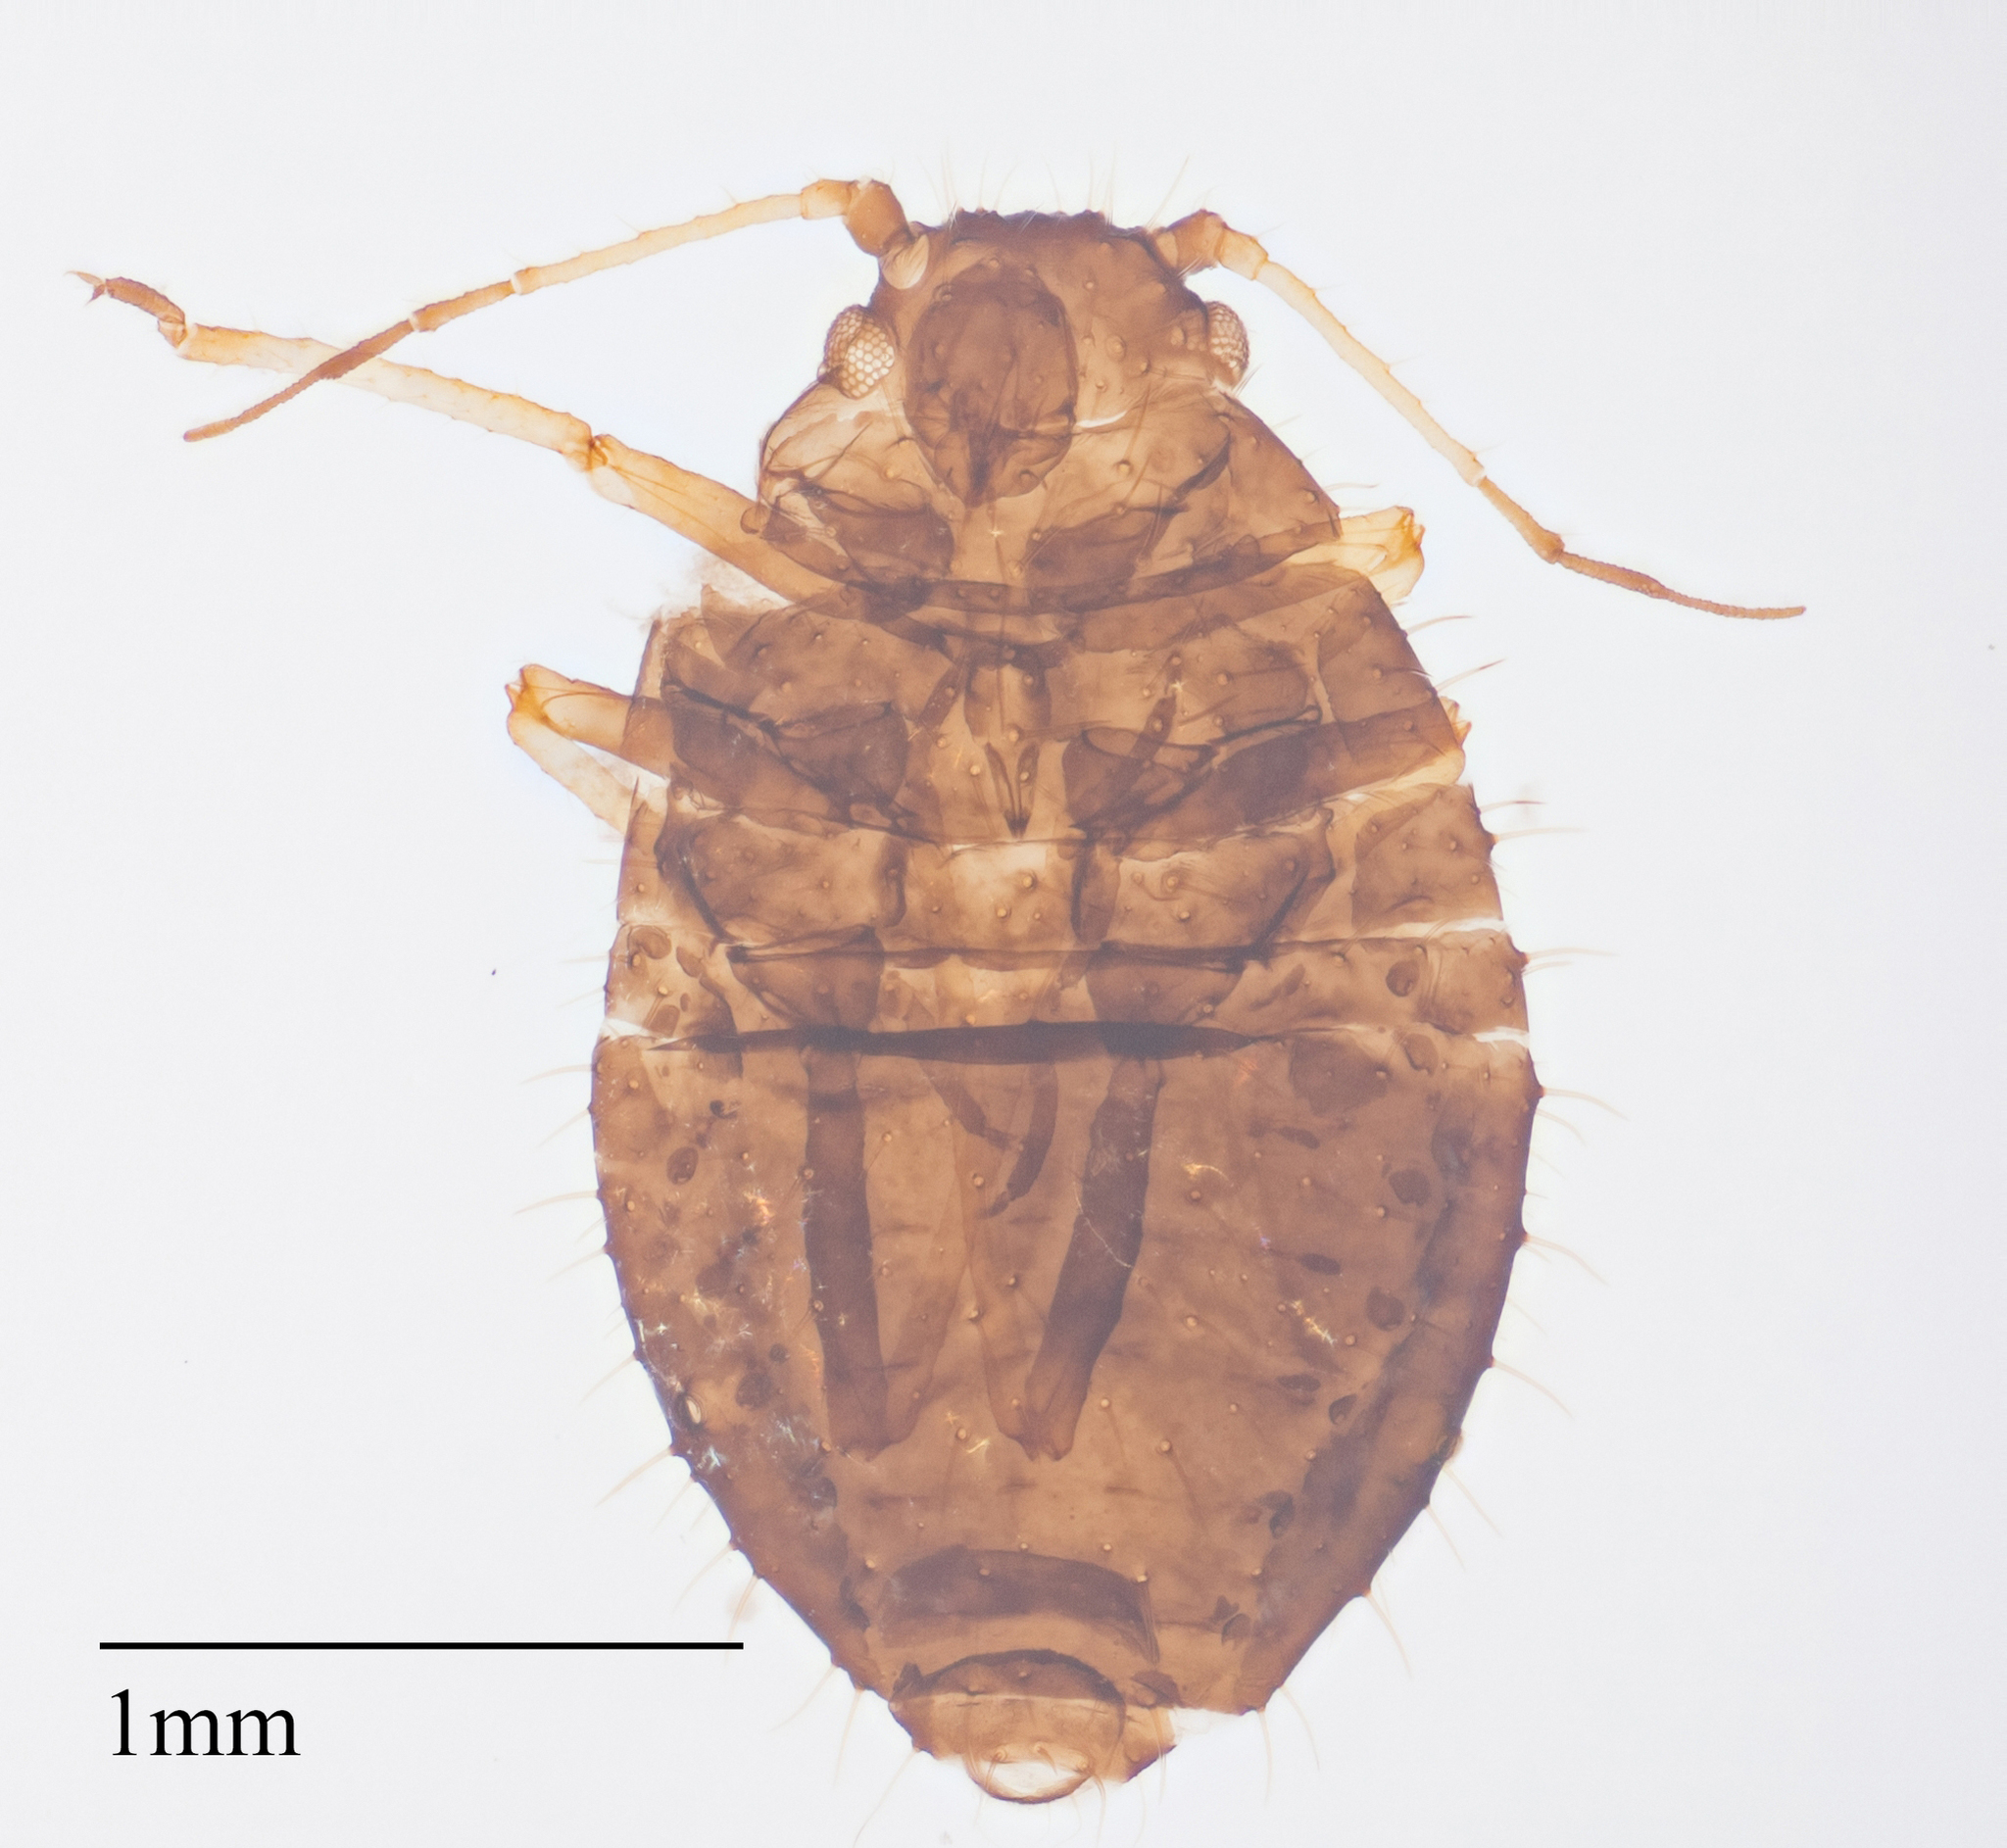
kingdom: Animalia
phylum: Arthropoda
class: Insecta
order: Hemiptera
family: Aphididae
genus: Sipha
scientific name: Sipha maydis
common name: Aphid
